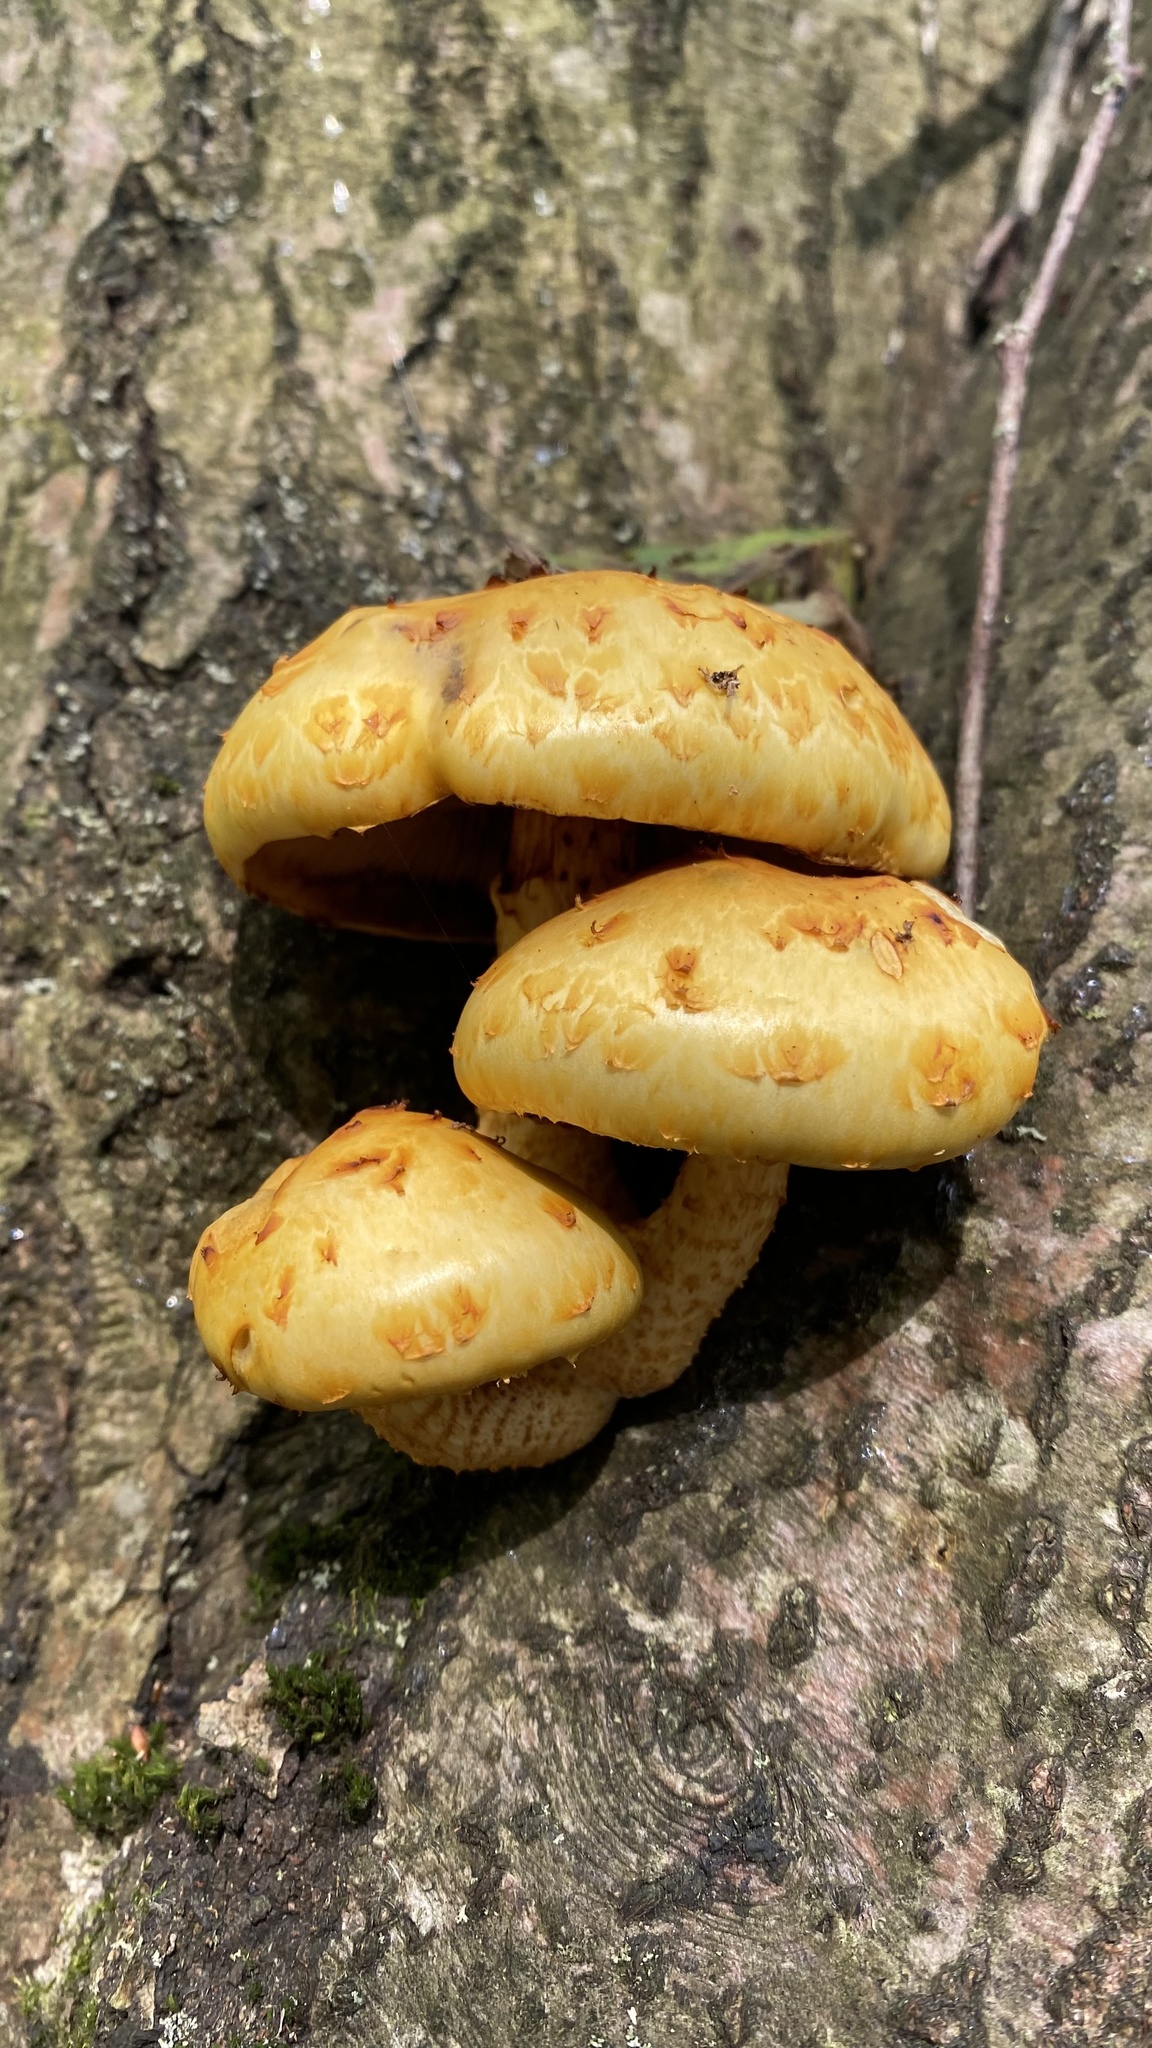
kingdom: Fungi
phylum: Basidiomycota
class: Agaricomycetes
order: Agaricales
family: Strophariaceae
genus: Pholiota
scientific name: Pholiota aurivella
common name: Golden scalycap
